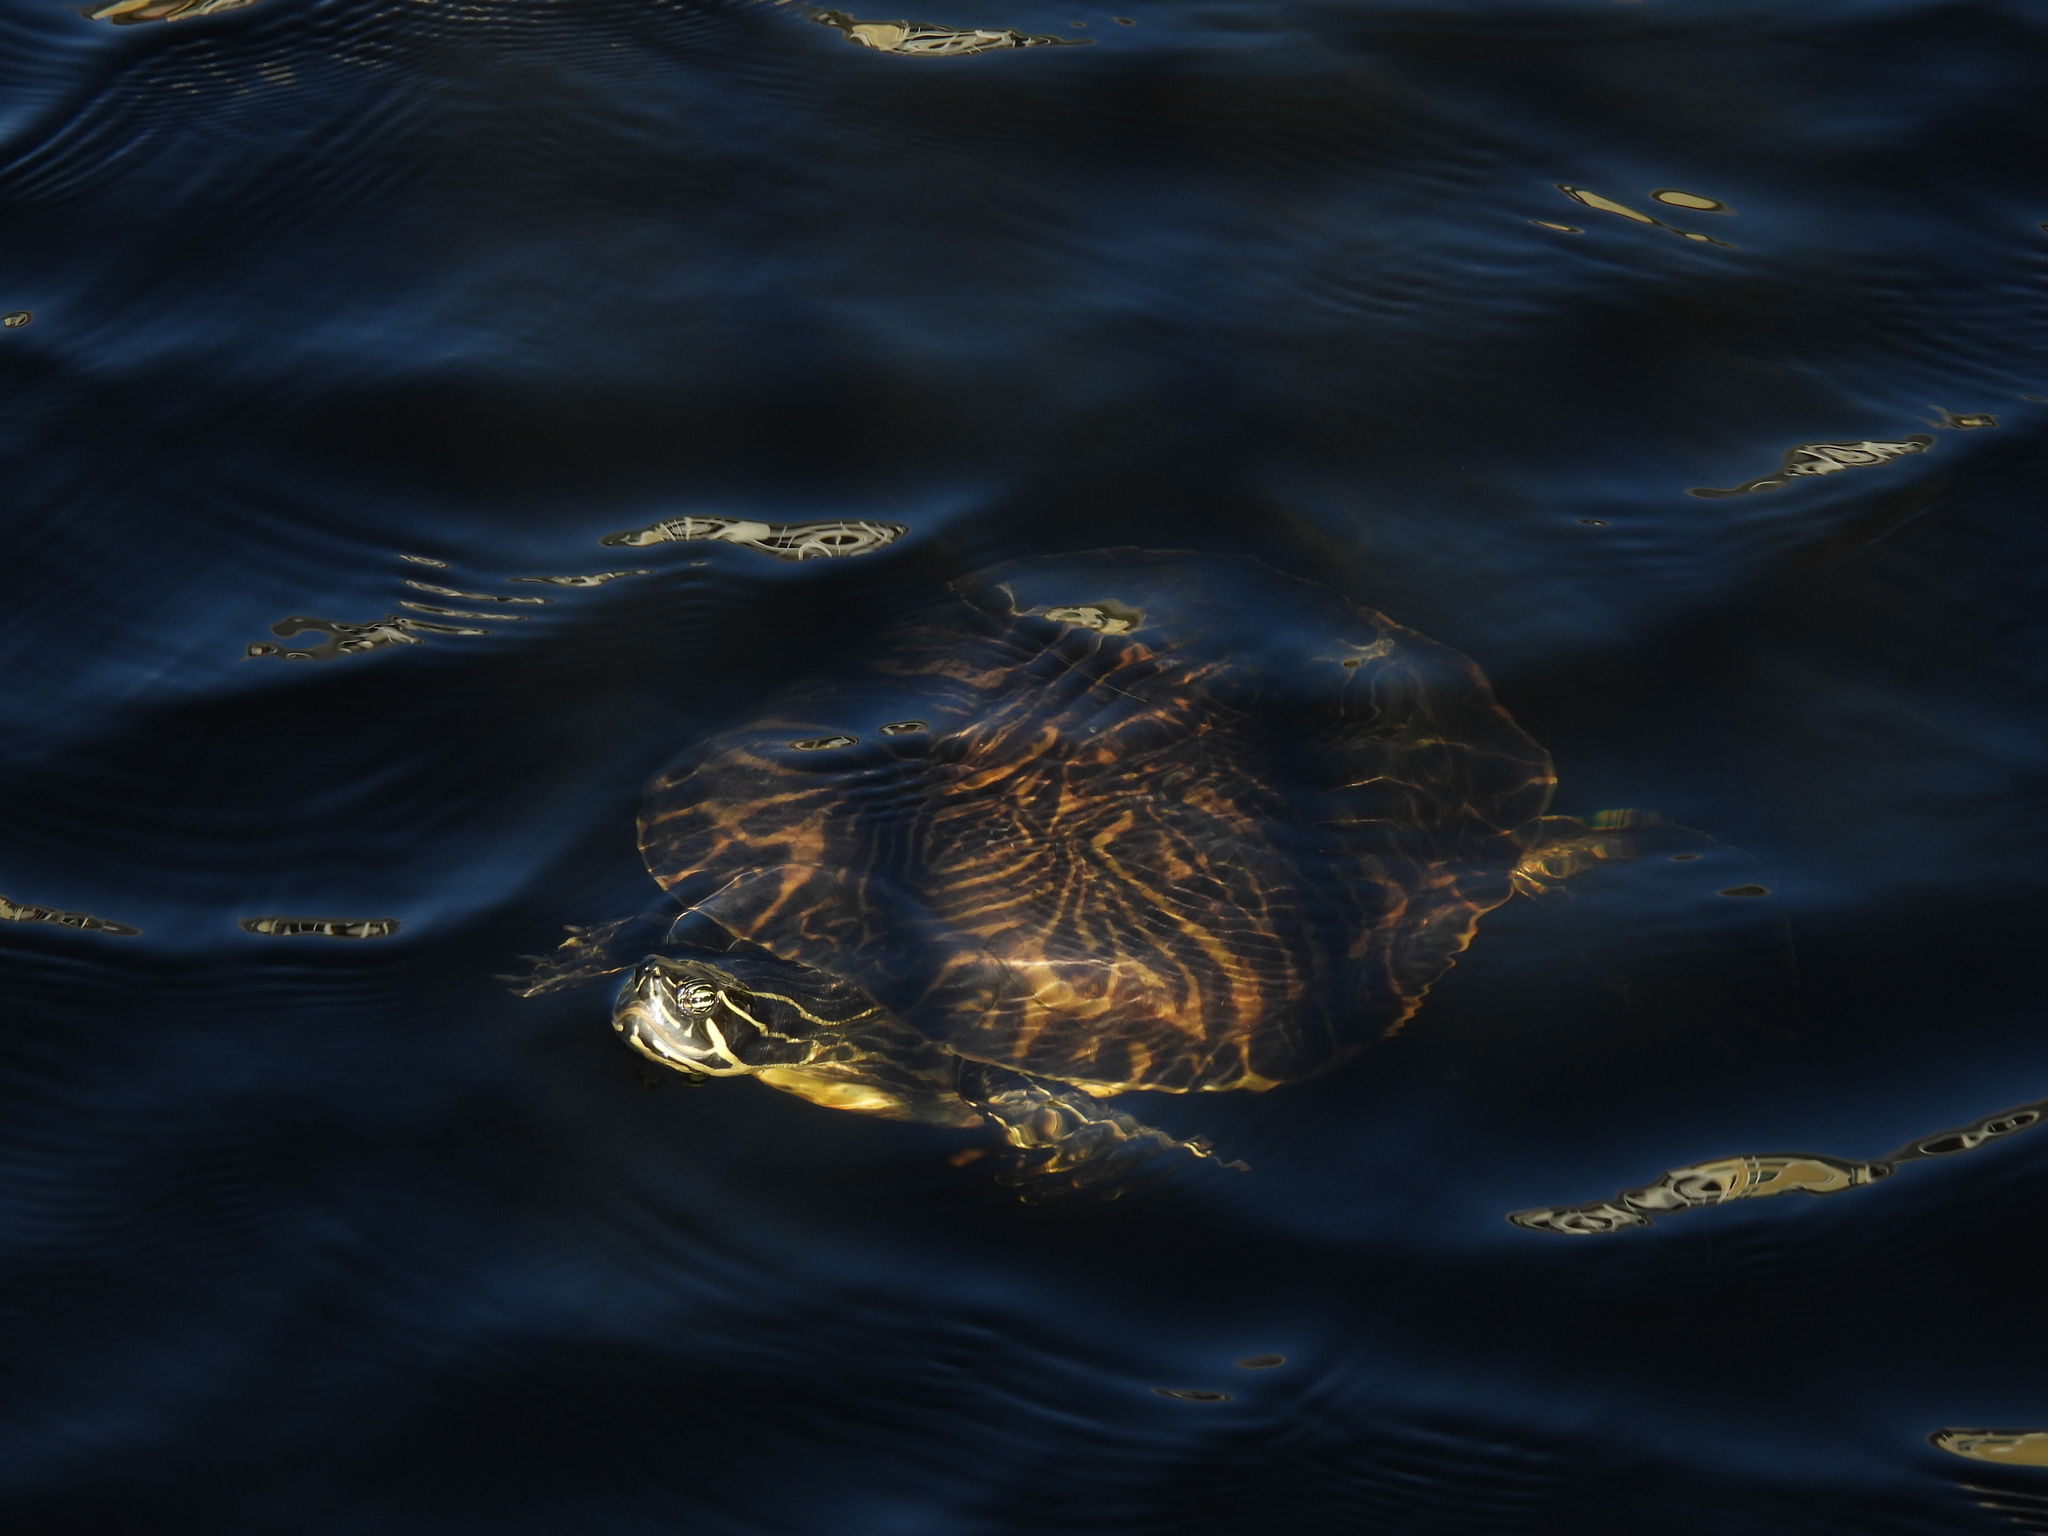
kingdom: Animalia
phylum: Chordata
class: Testudines
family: Emydidae
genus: Pseudemys
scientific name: Pseudemys peninsularis
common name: Peninsula cooter
